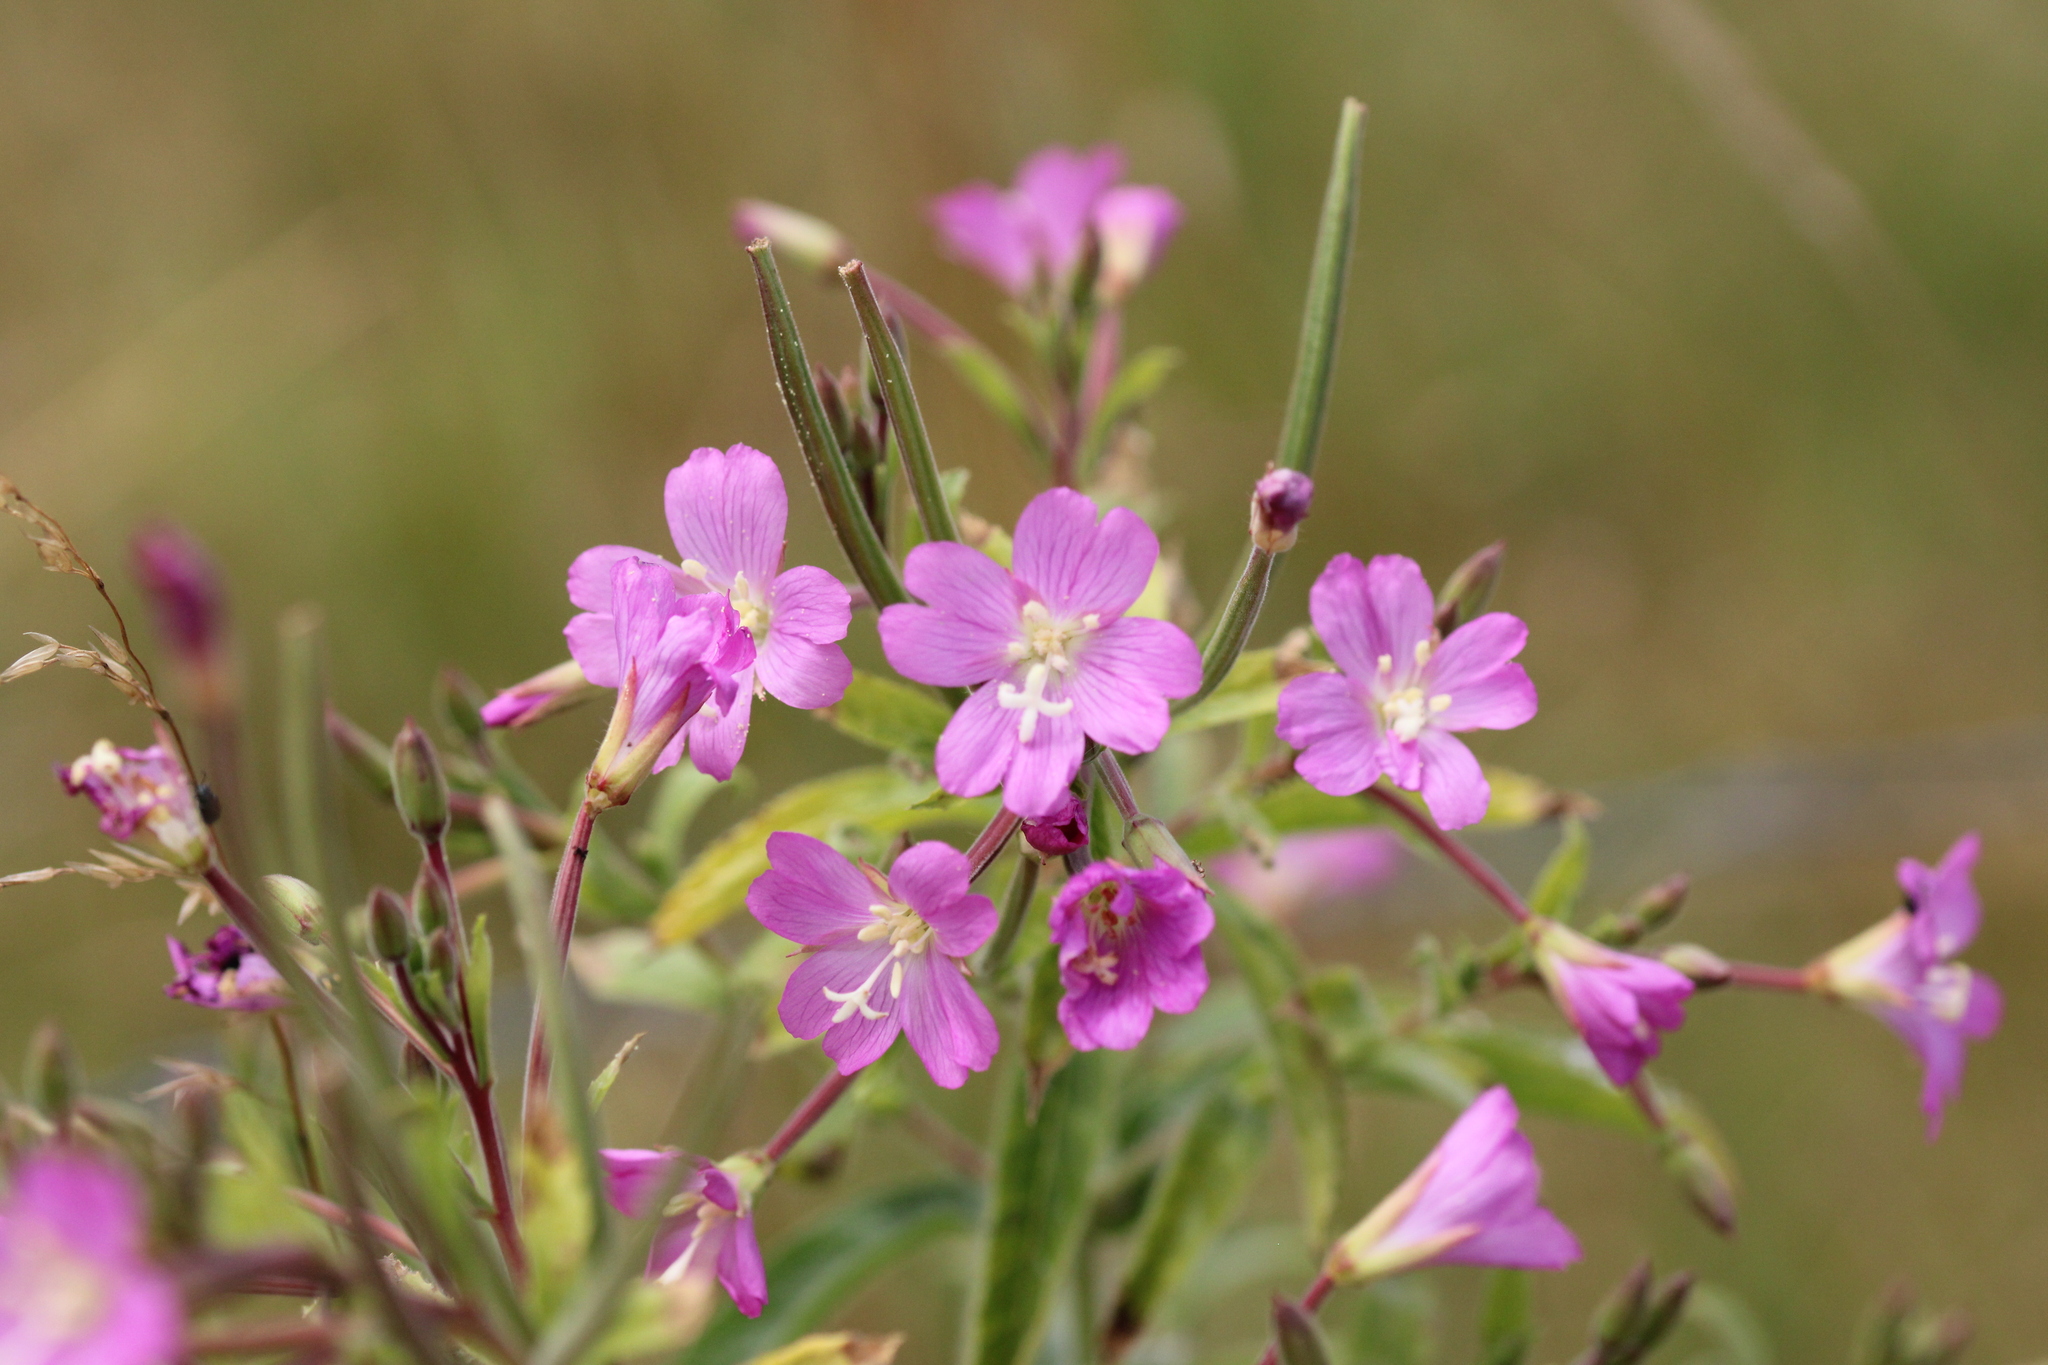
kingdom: Plantae
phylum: Tracheophyta
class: Magnoliopsida
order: Myrtales
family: Onagraceae
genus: Epilobium
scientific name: Epilobium hirsutum
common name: Great willowherb
